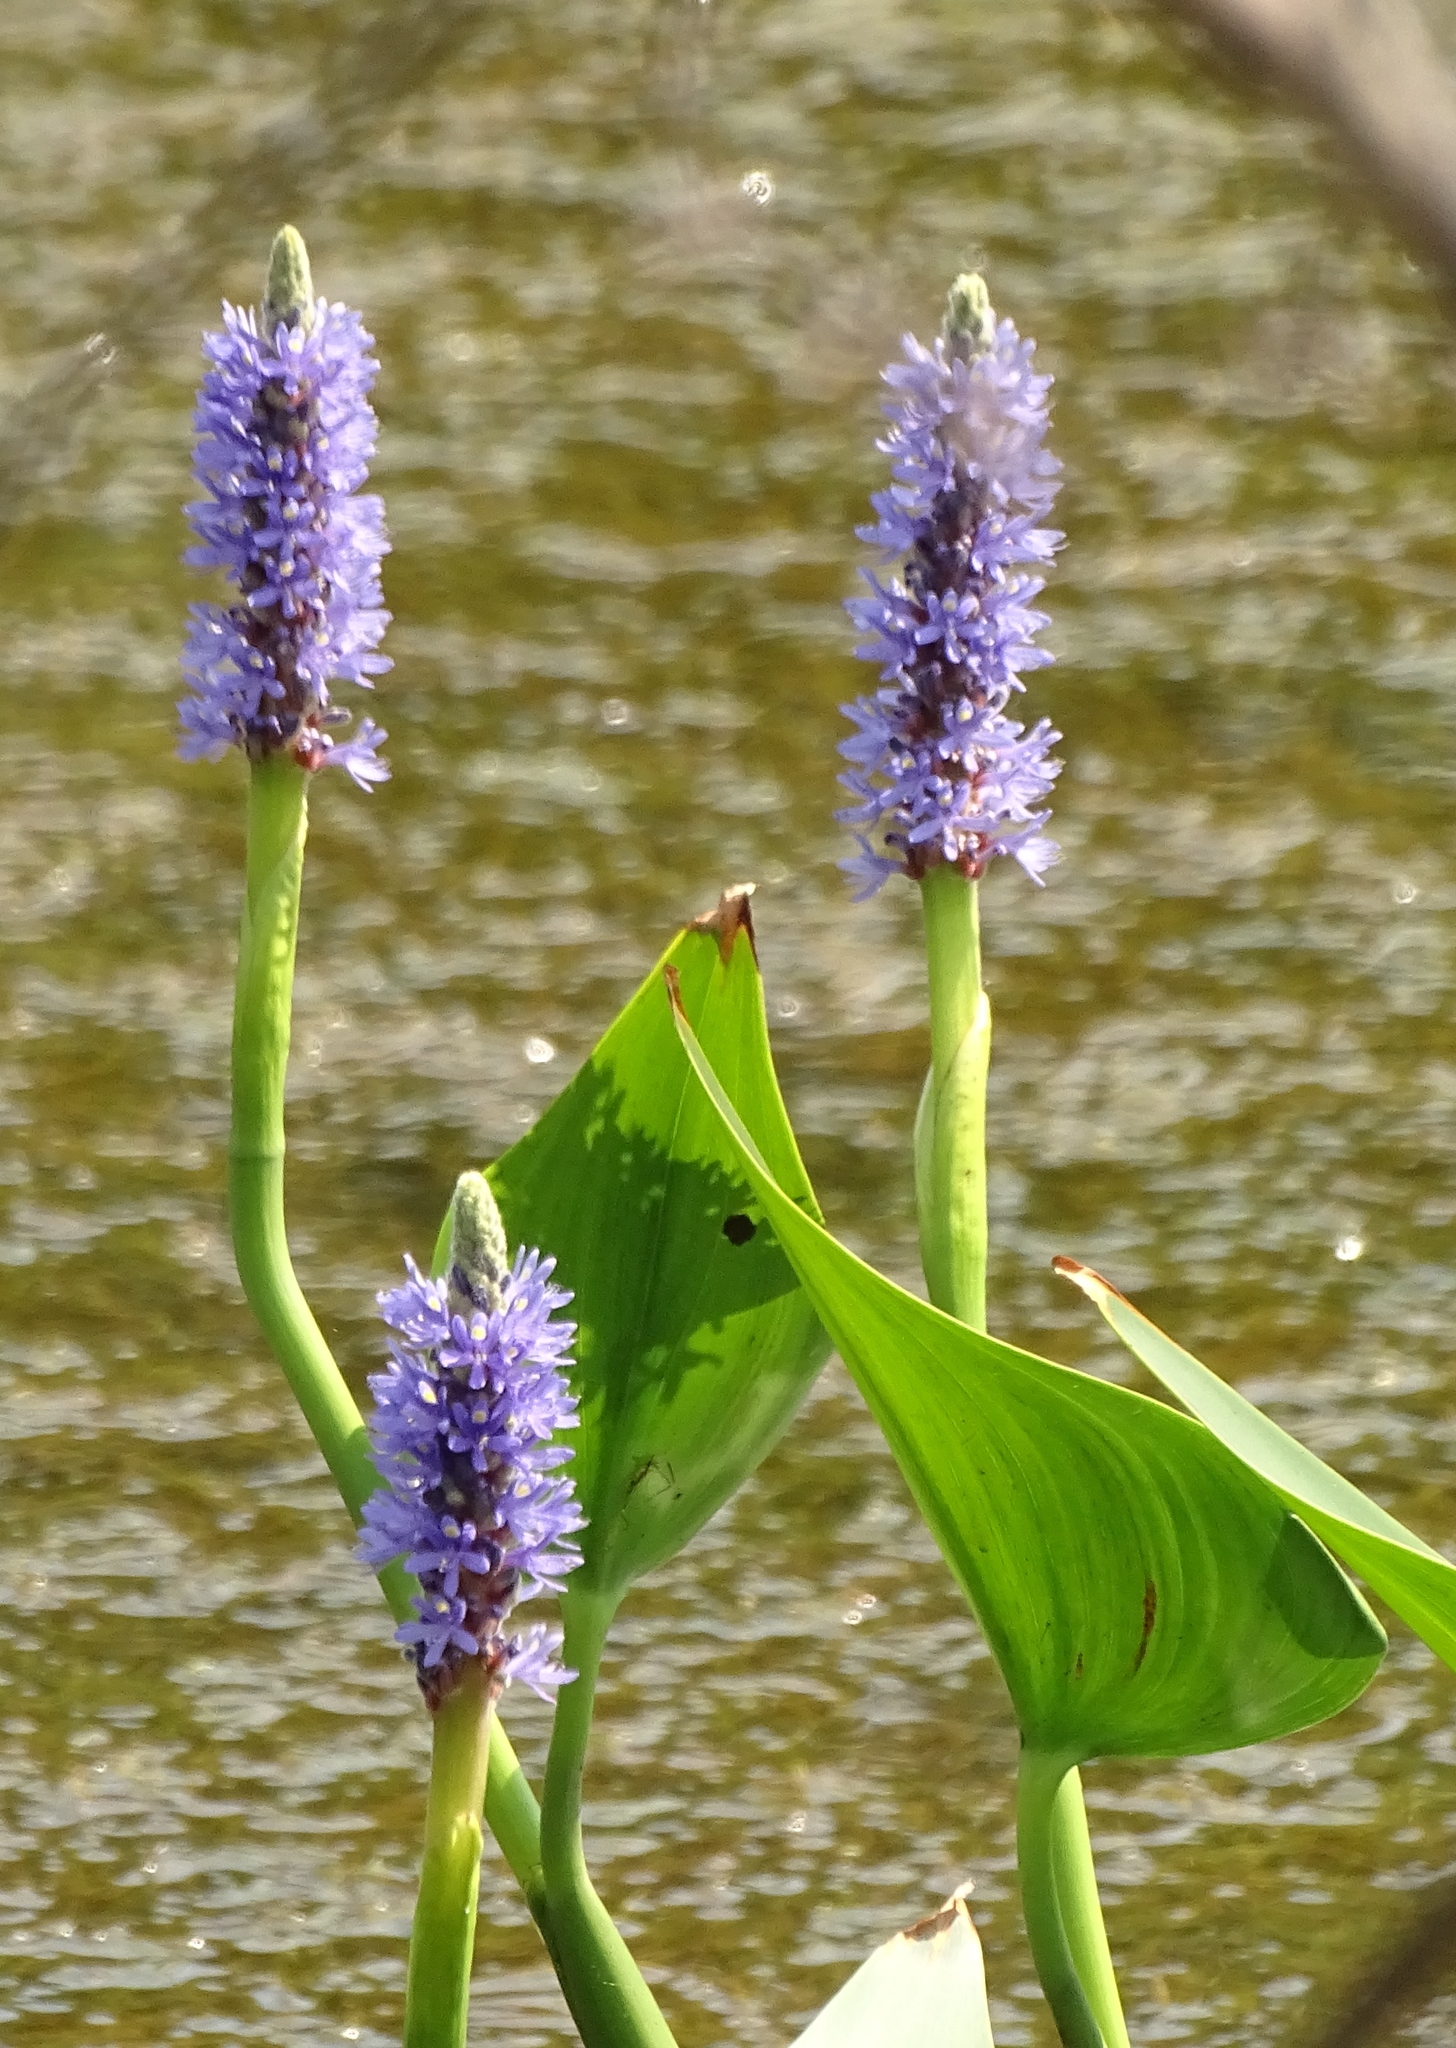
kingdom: Plantae
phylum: Tracheophyta
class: Liliopsida
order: Commelinales
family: Pontederiaceae
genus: Pontederia
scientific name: Pontederia cordata
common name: Pickerelweed
